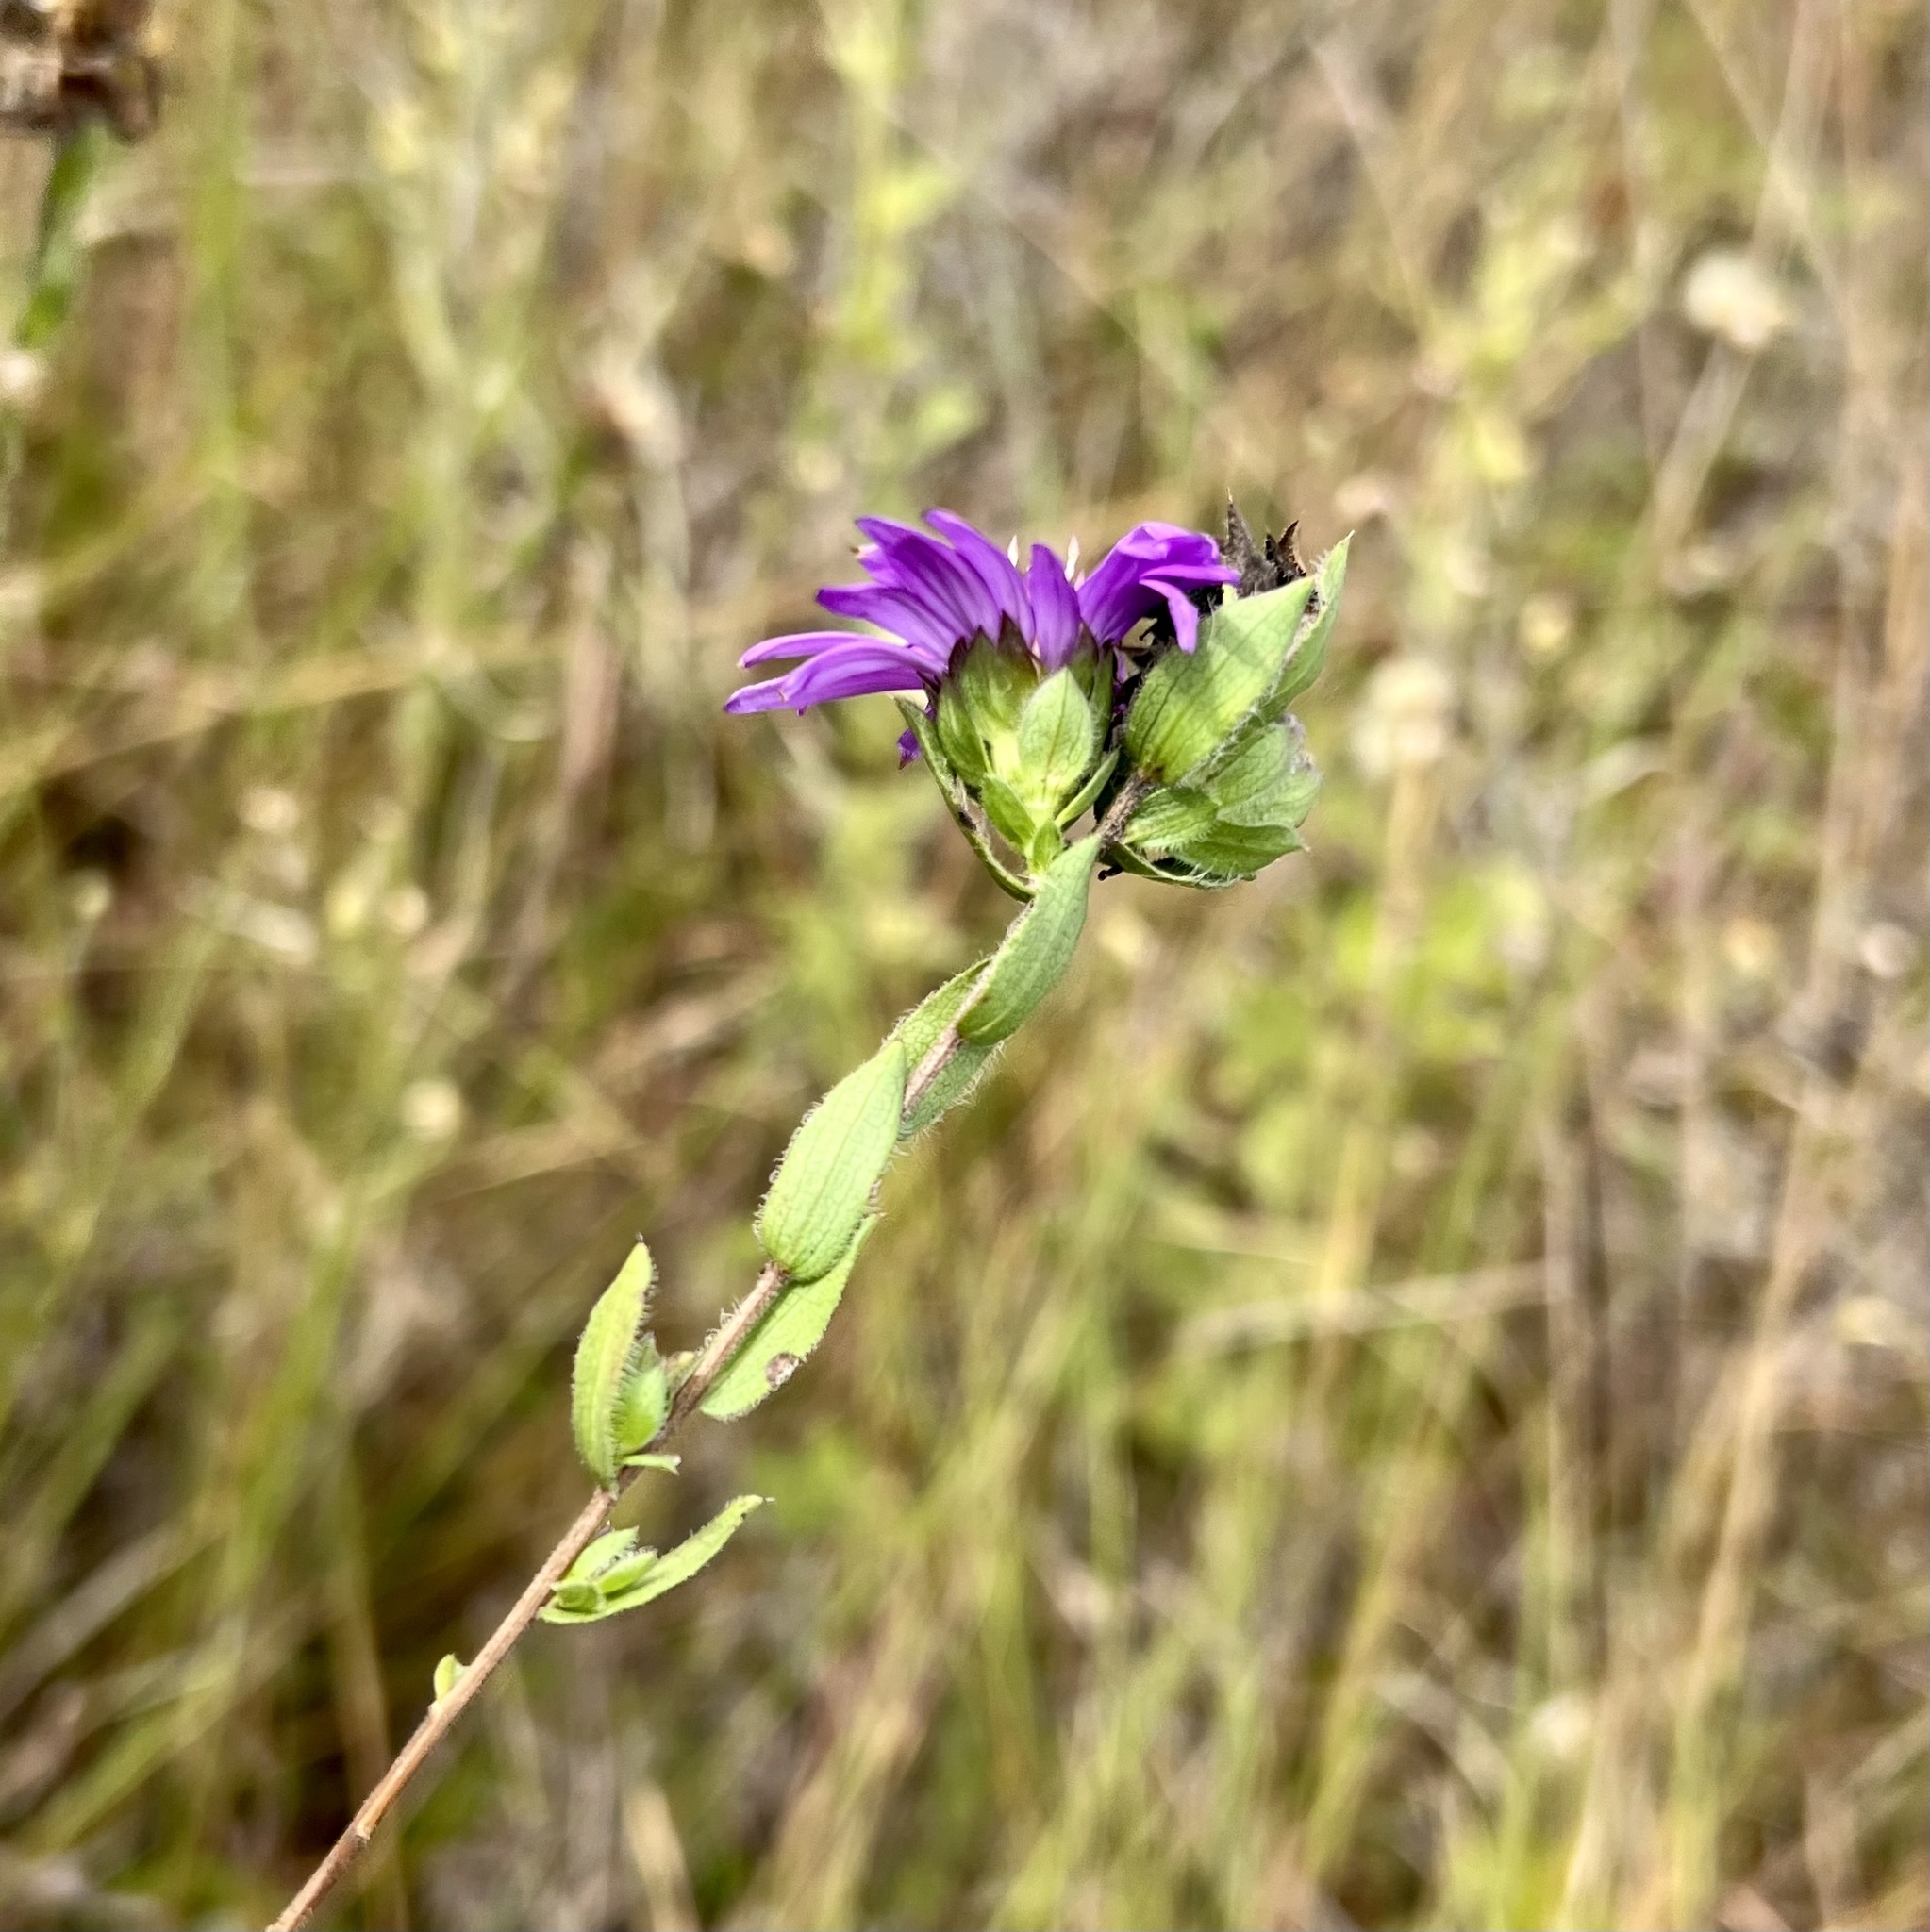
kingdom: Plantae
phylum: Tracheophyta
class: Magnoliopsida
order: Asterales
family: Asteraceae
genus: Symphyotrichum
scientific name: Symphyotrichum pratense
